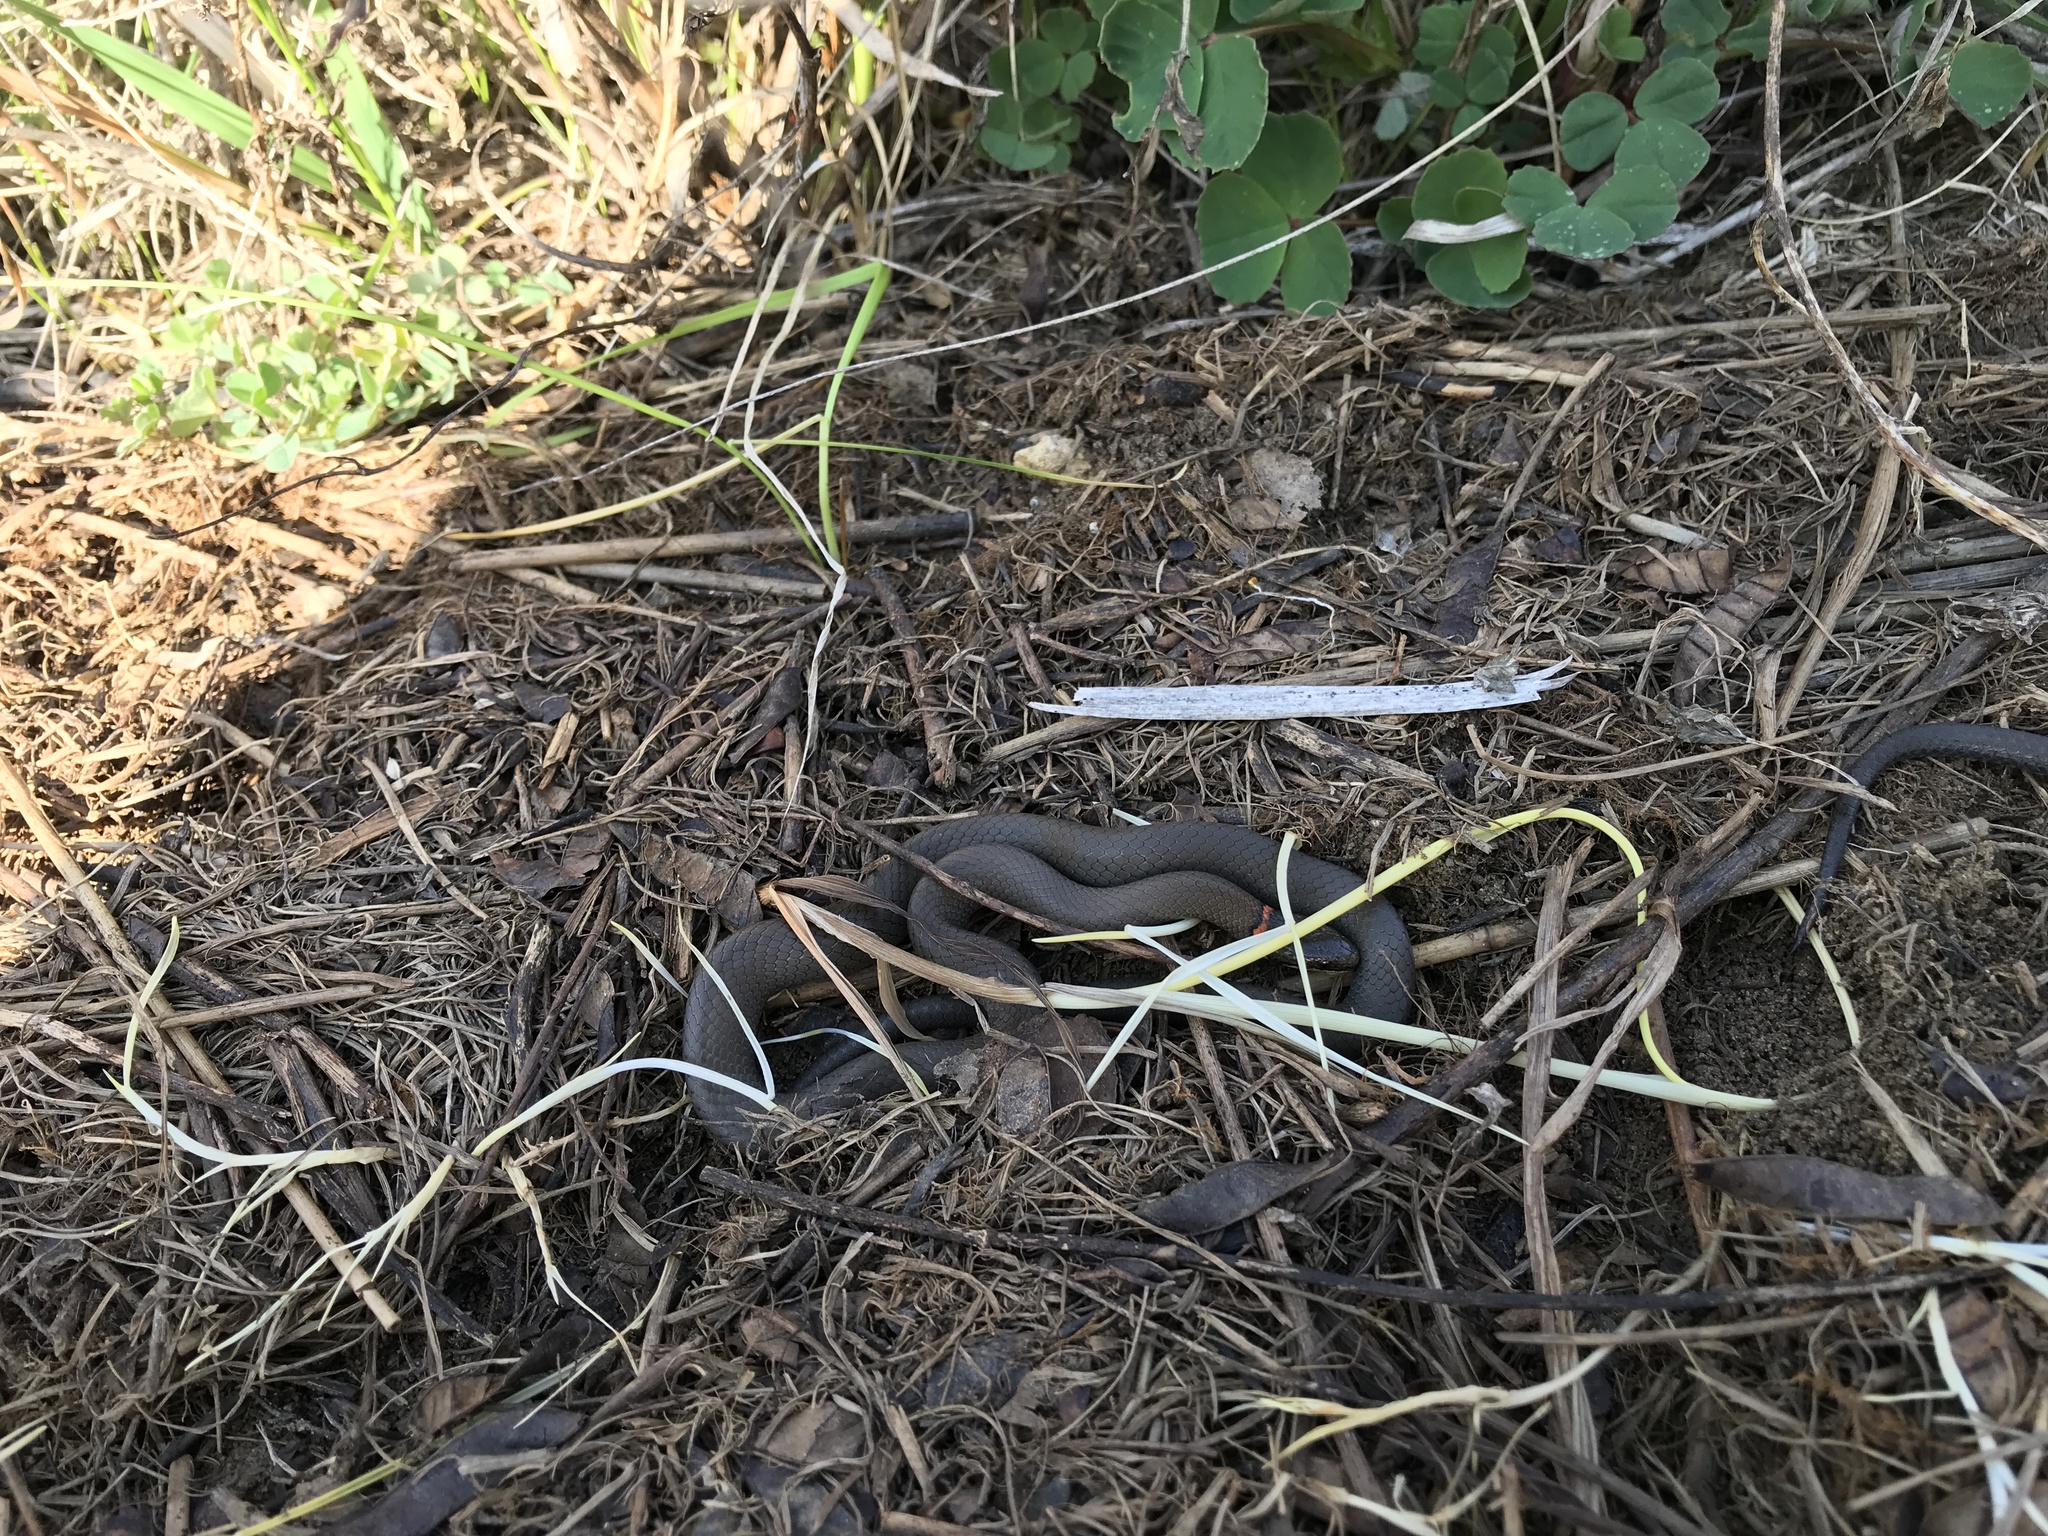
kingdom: Animalia
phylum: Chordata
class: Squamata
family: Colubridae
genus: Diadophis
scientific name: Diadophis punctatus
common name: Ringneck snake
